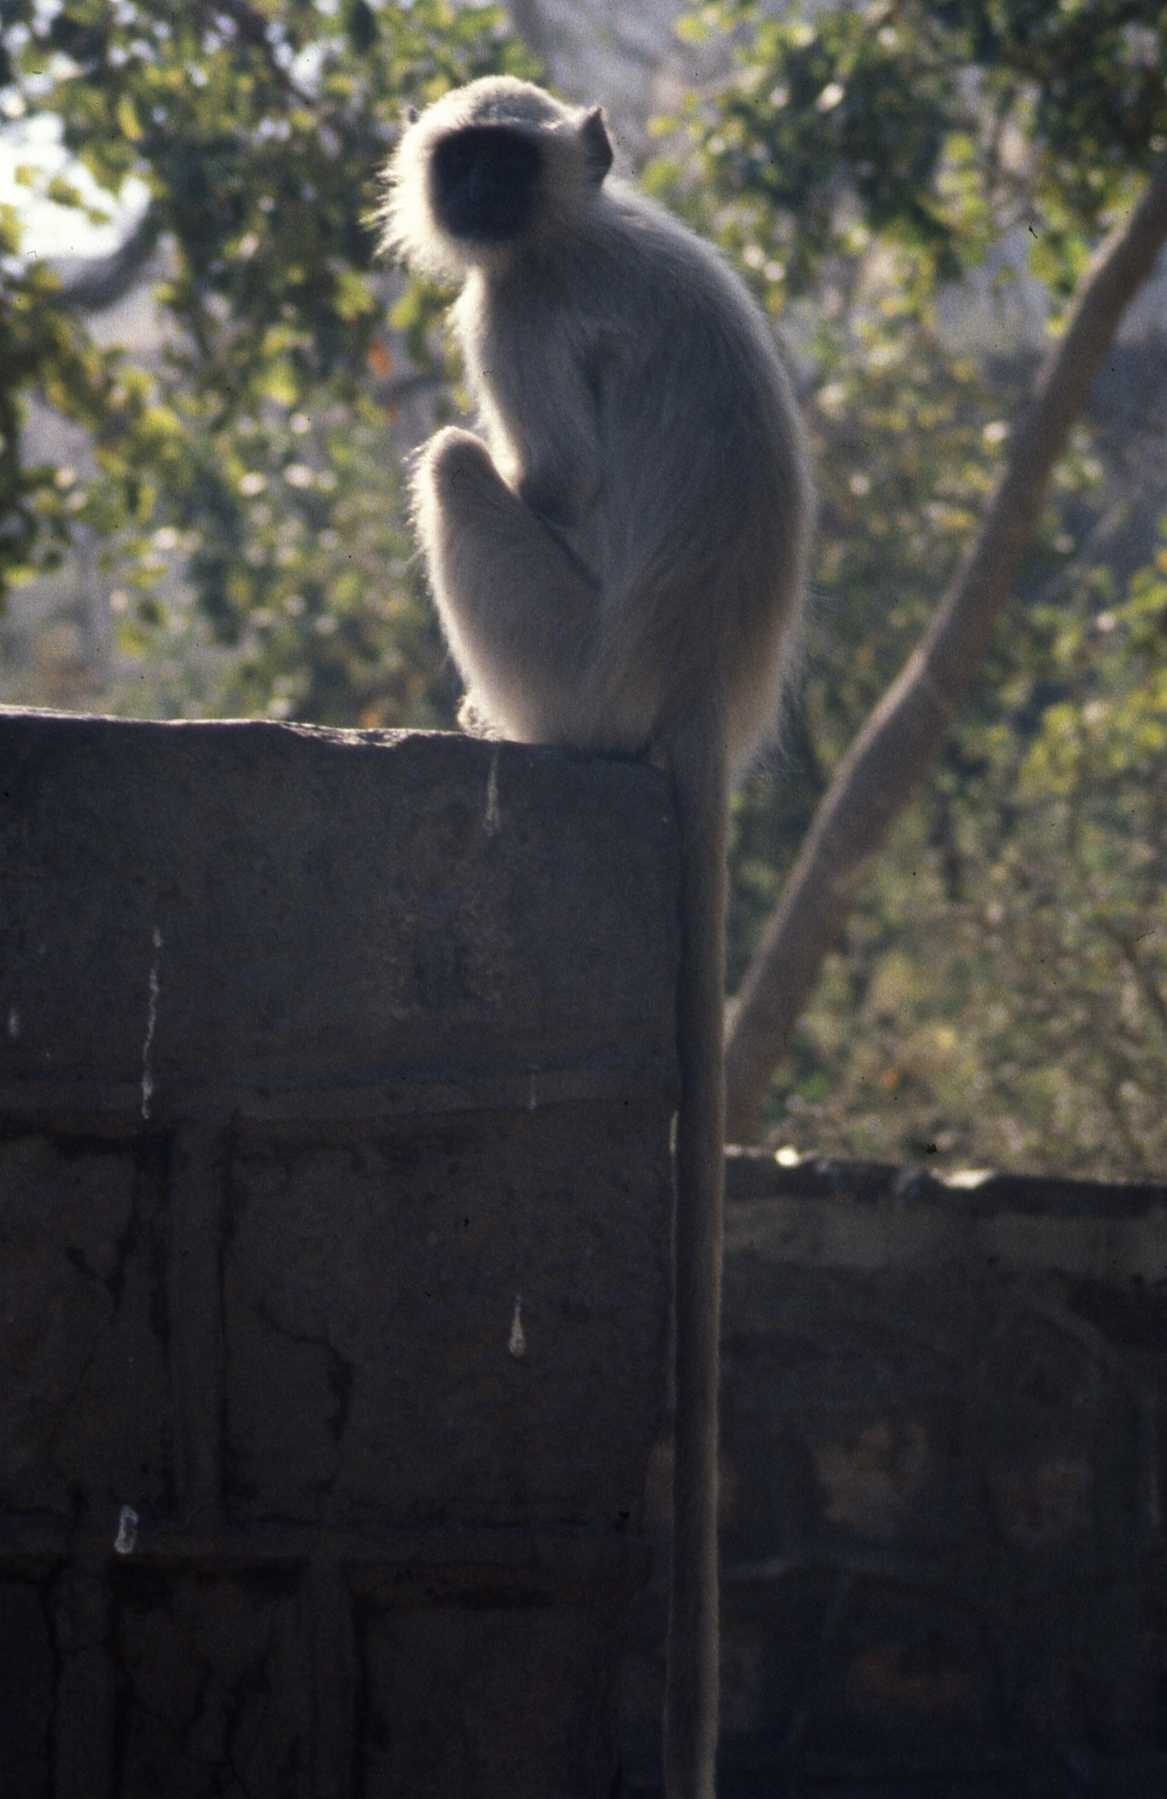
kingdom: Animalia
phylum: Chordata
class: Mammalia
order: Primates
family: Cercopithecidae
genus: Semnopithecus
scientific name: Semnopithecus entellus
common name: Northern plains gray langur
